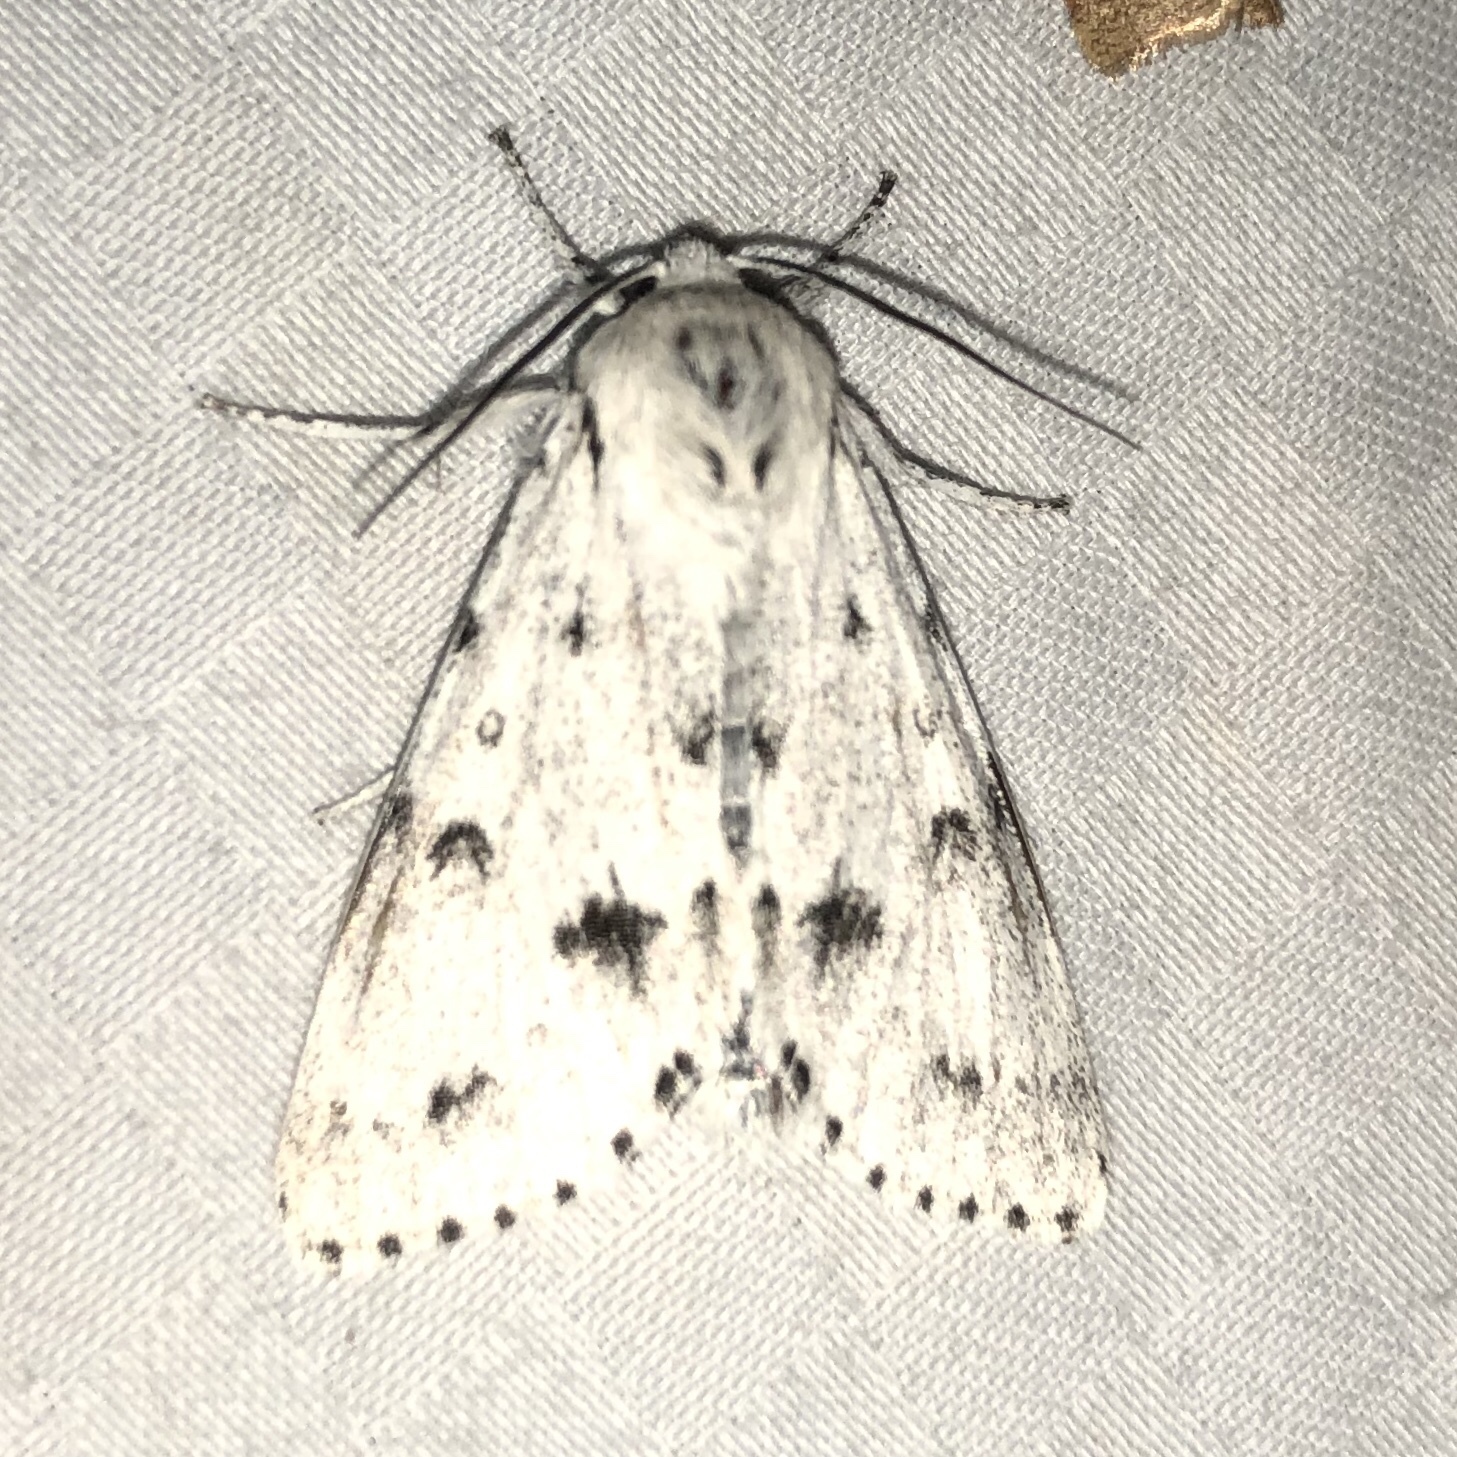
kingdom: Animalia
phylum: Arthropoda
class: Insecta
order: Lepidoptera
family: Noctuidae
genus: Acronicta
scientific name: Acronicta vulpina
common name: Miller dagger
